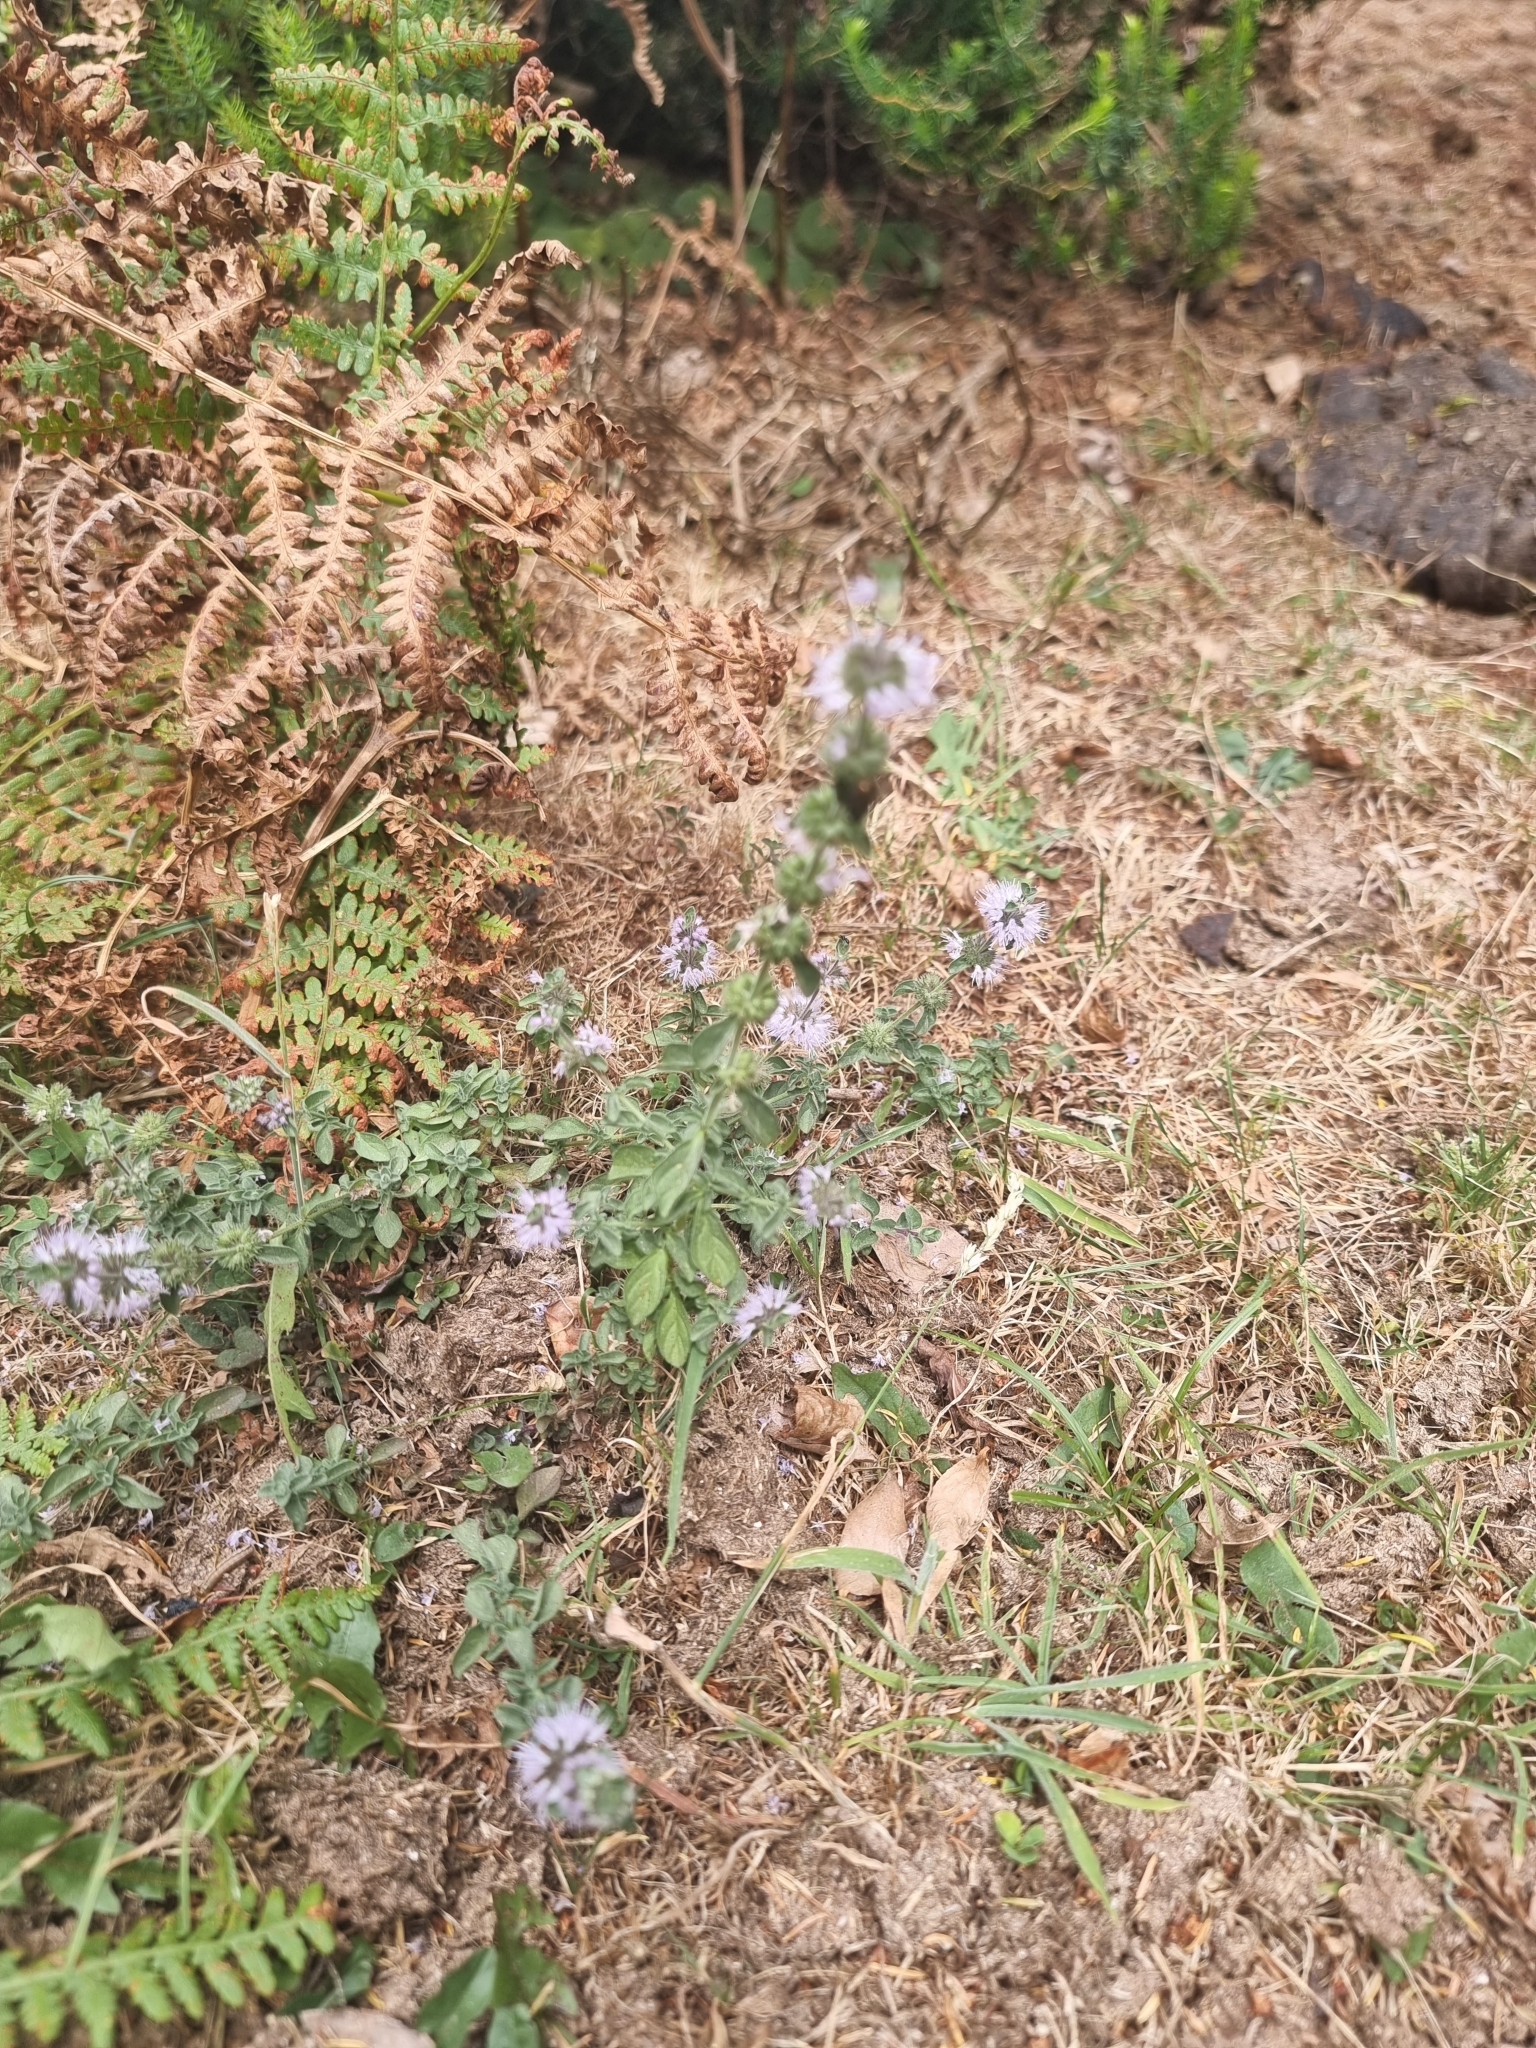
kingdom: Plantae
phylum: Tracheophyta
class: Magnoliopsida
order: Lamiales
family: Lamiaceae
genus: Mentha
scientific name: Mentha pulegium
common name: Pennyroyal
